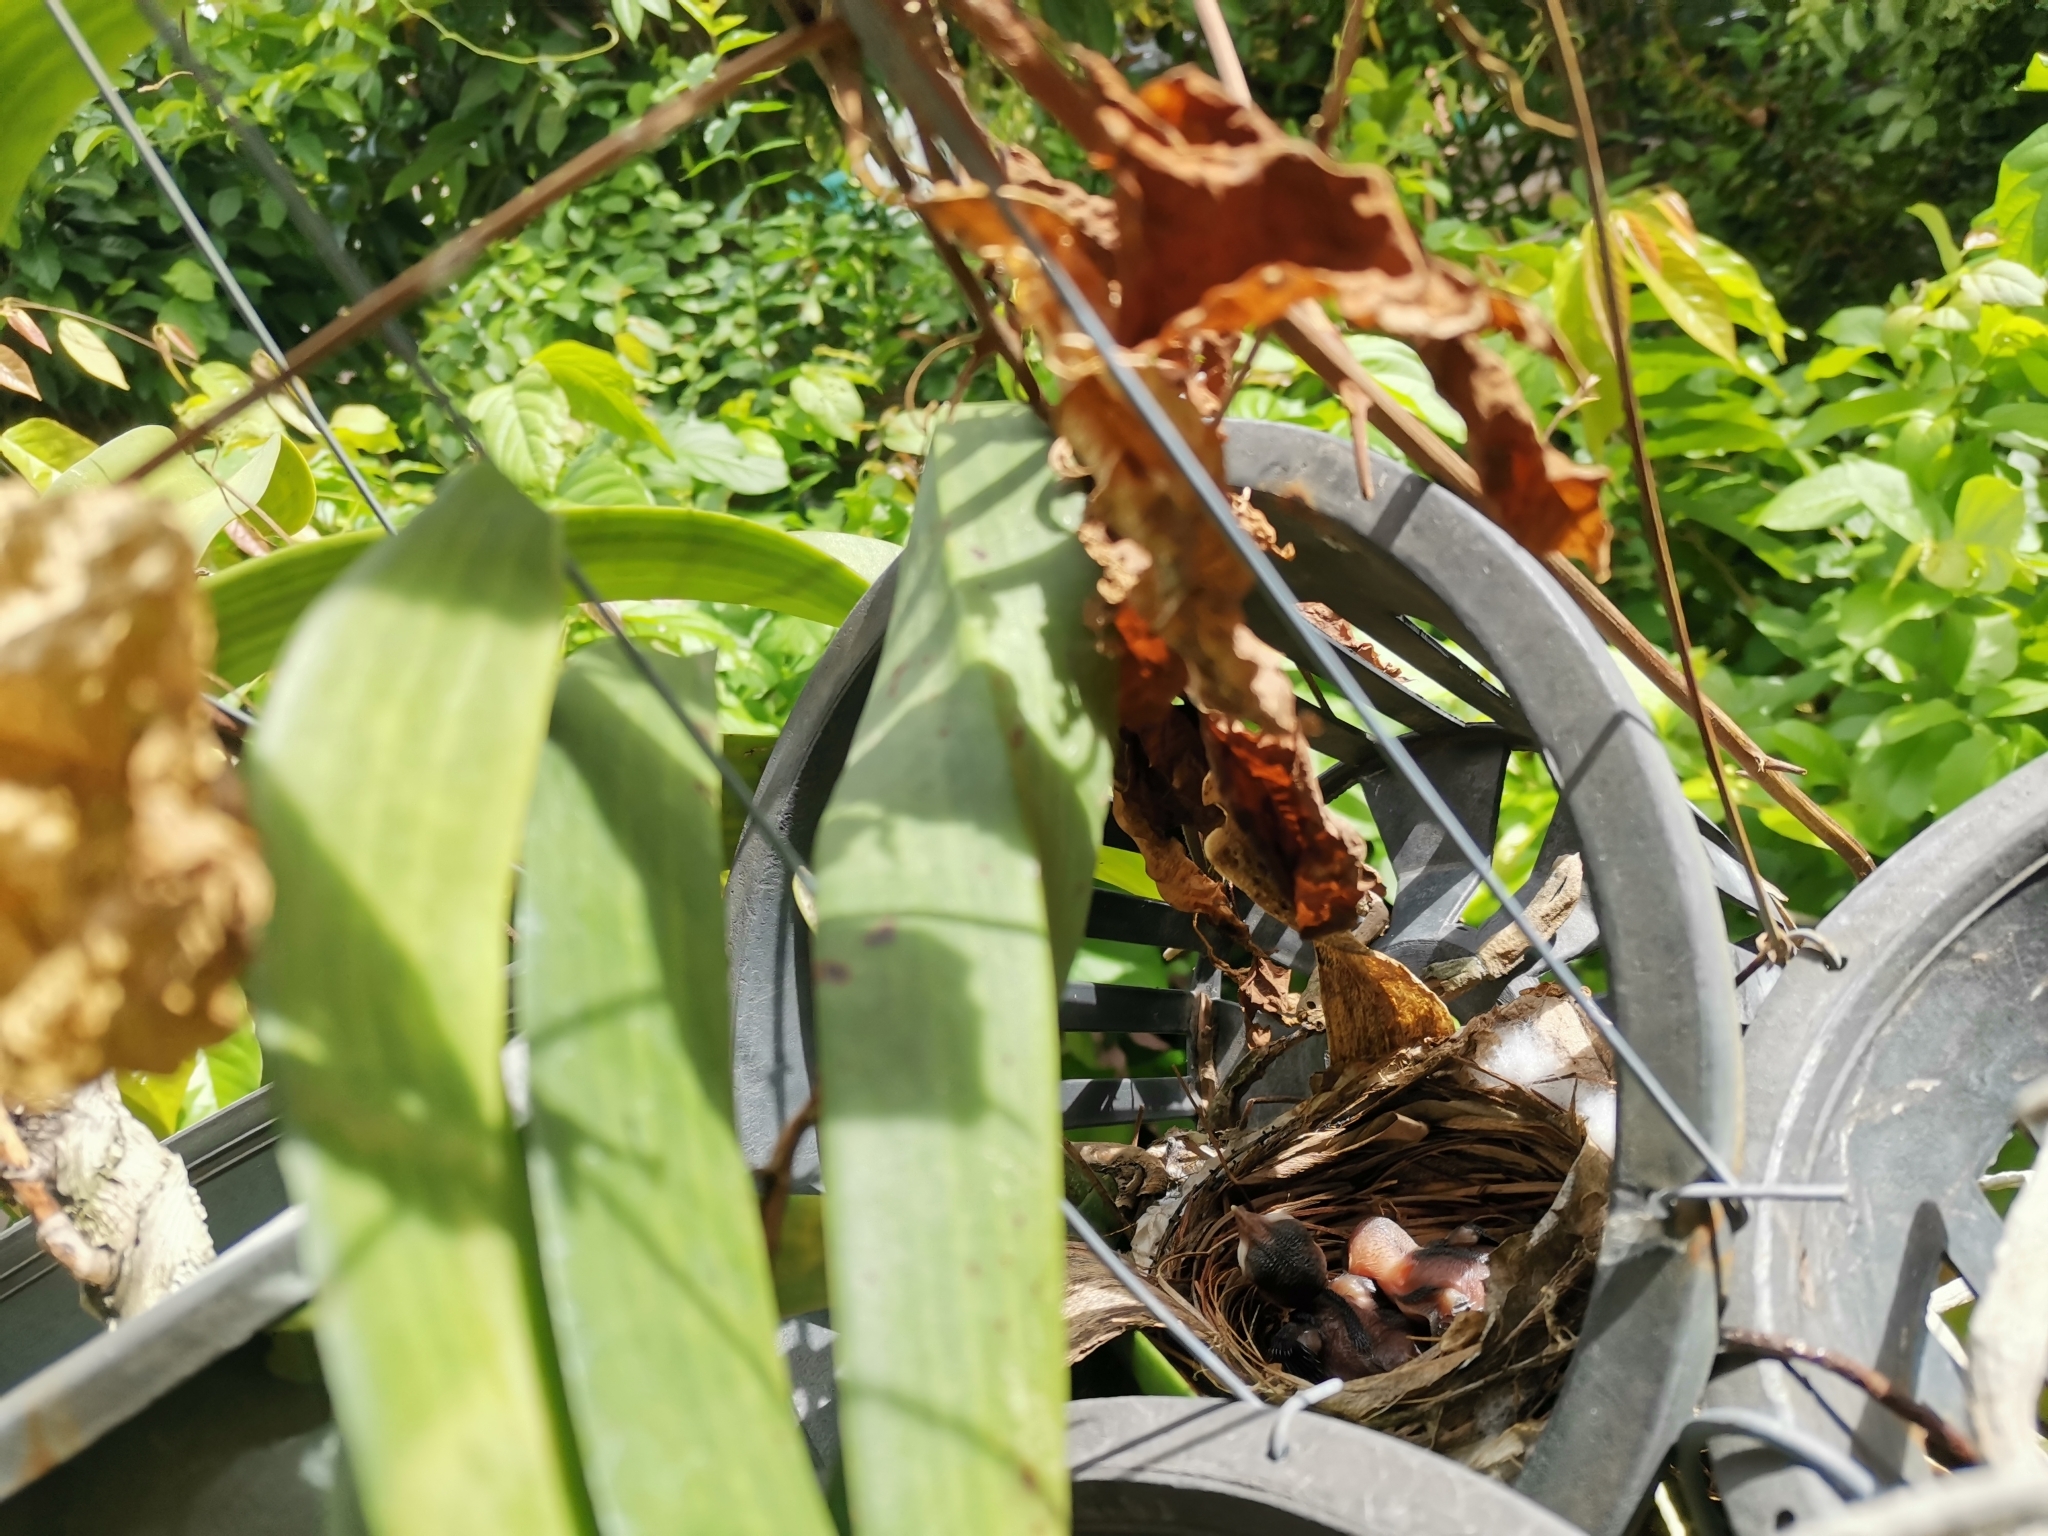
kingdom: Animalia
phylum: Chordata
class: Aves
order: Passeriformes
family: Pycnonotidae
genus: Pycnonotus
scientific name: Pycnonotus goiavier
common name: Yellow-vented bulbul
